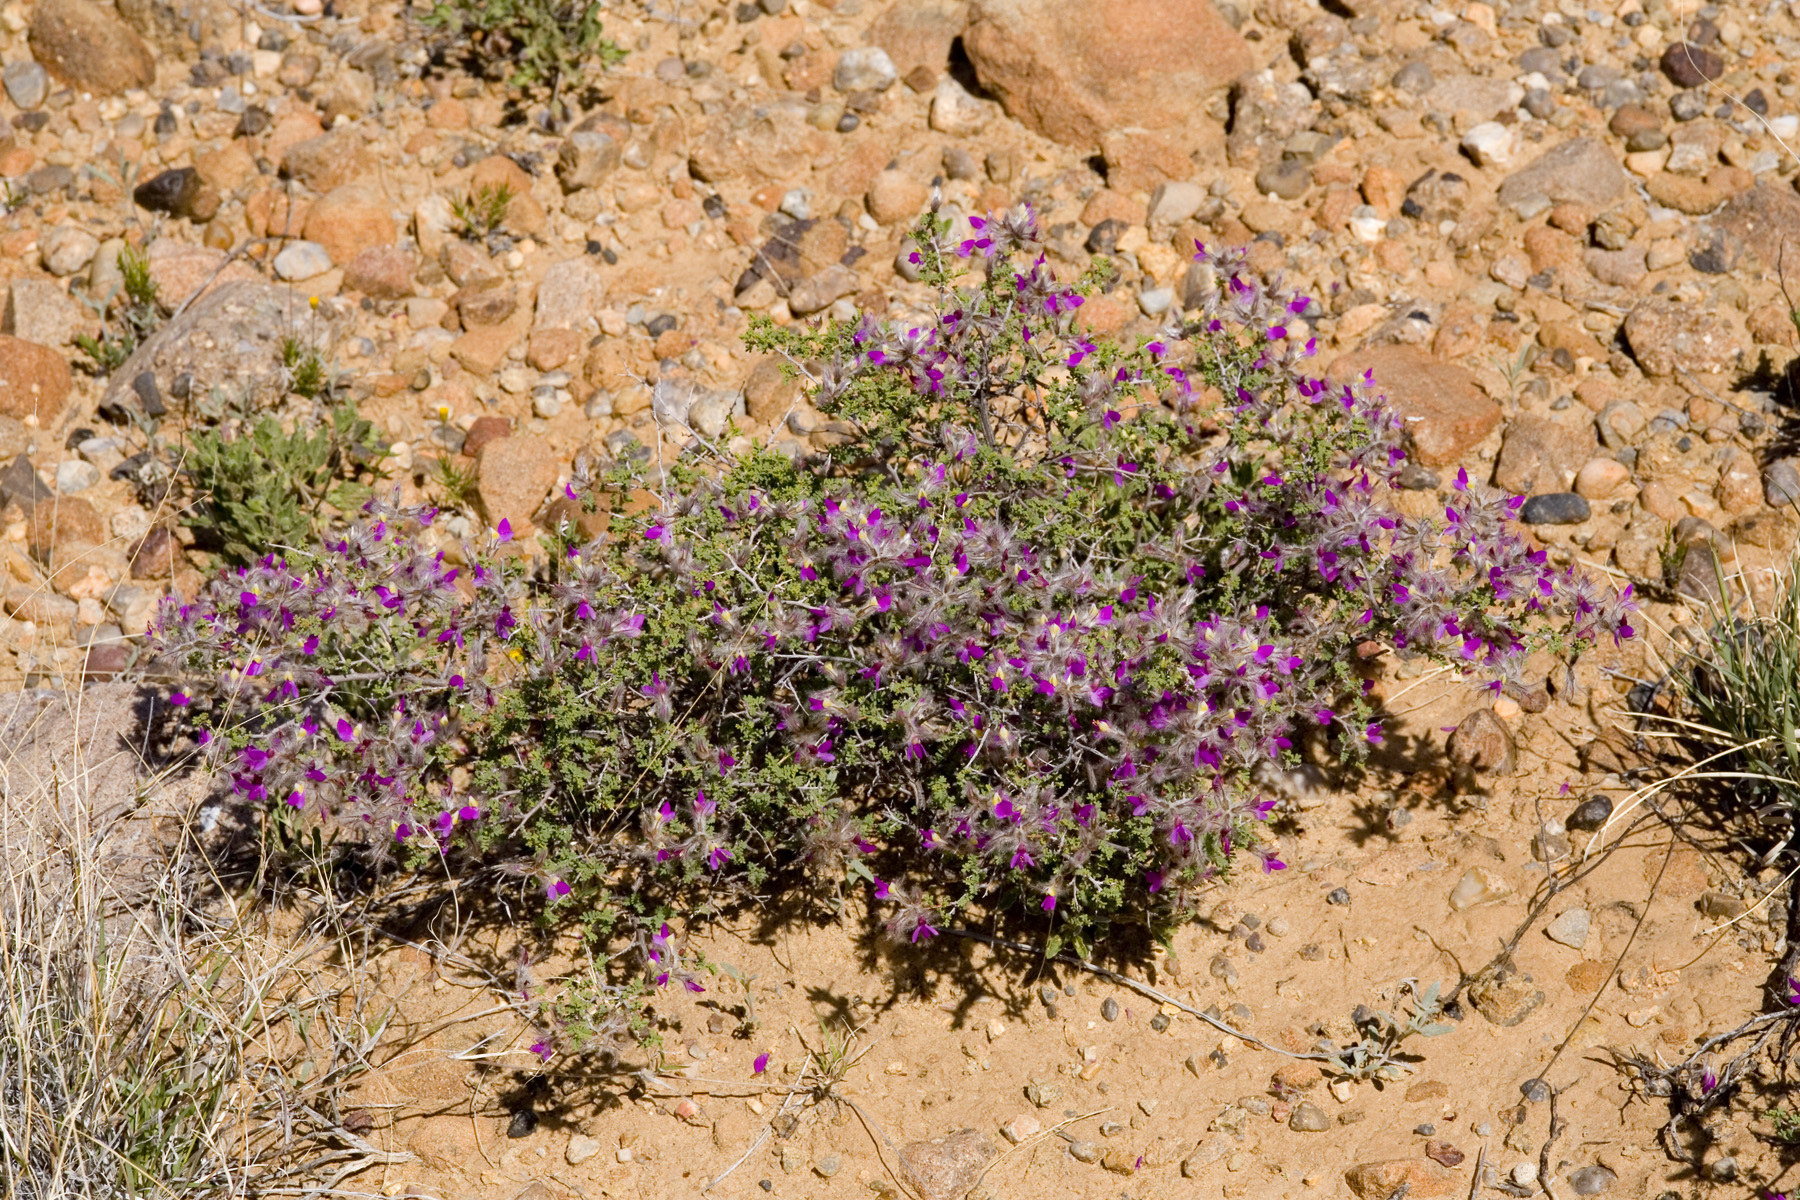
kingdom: Plantae
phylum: Tracheophyta
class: Magnoliopsida
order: Fabales
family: Fabaceae
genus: Dalea
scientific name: Dalea formosa
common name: Feather-plume dalea
